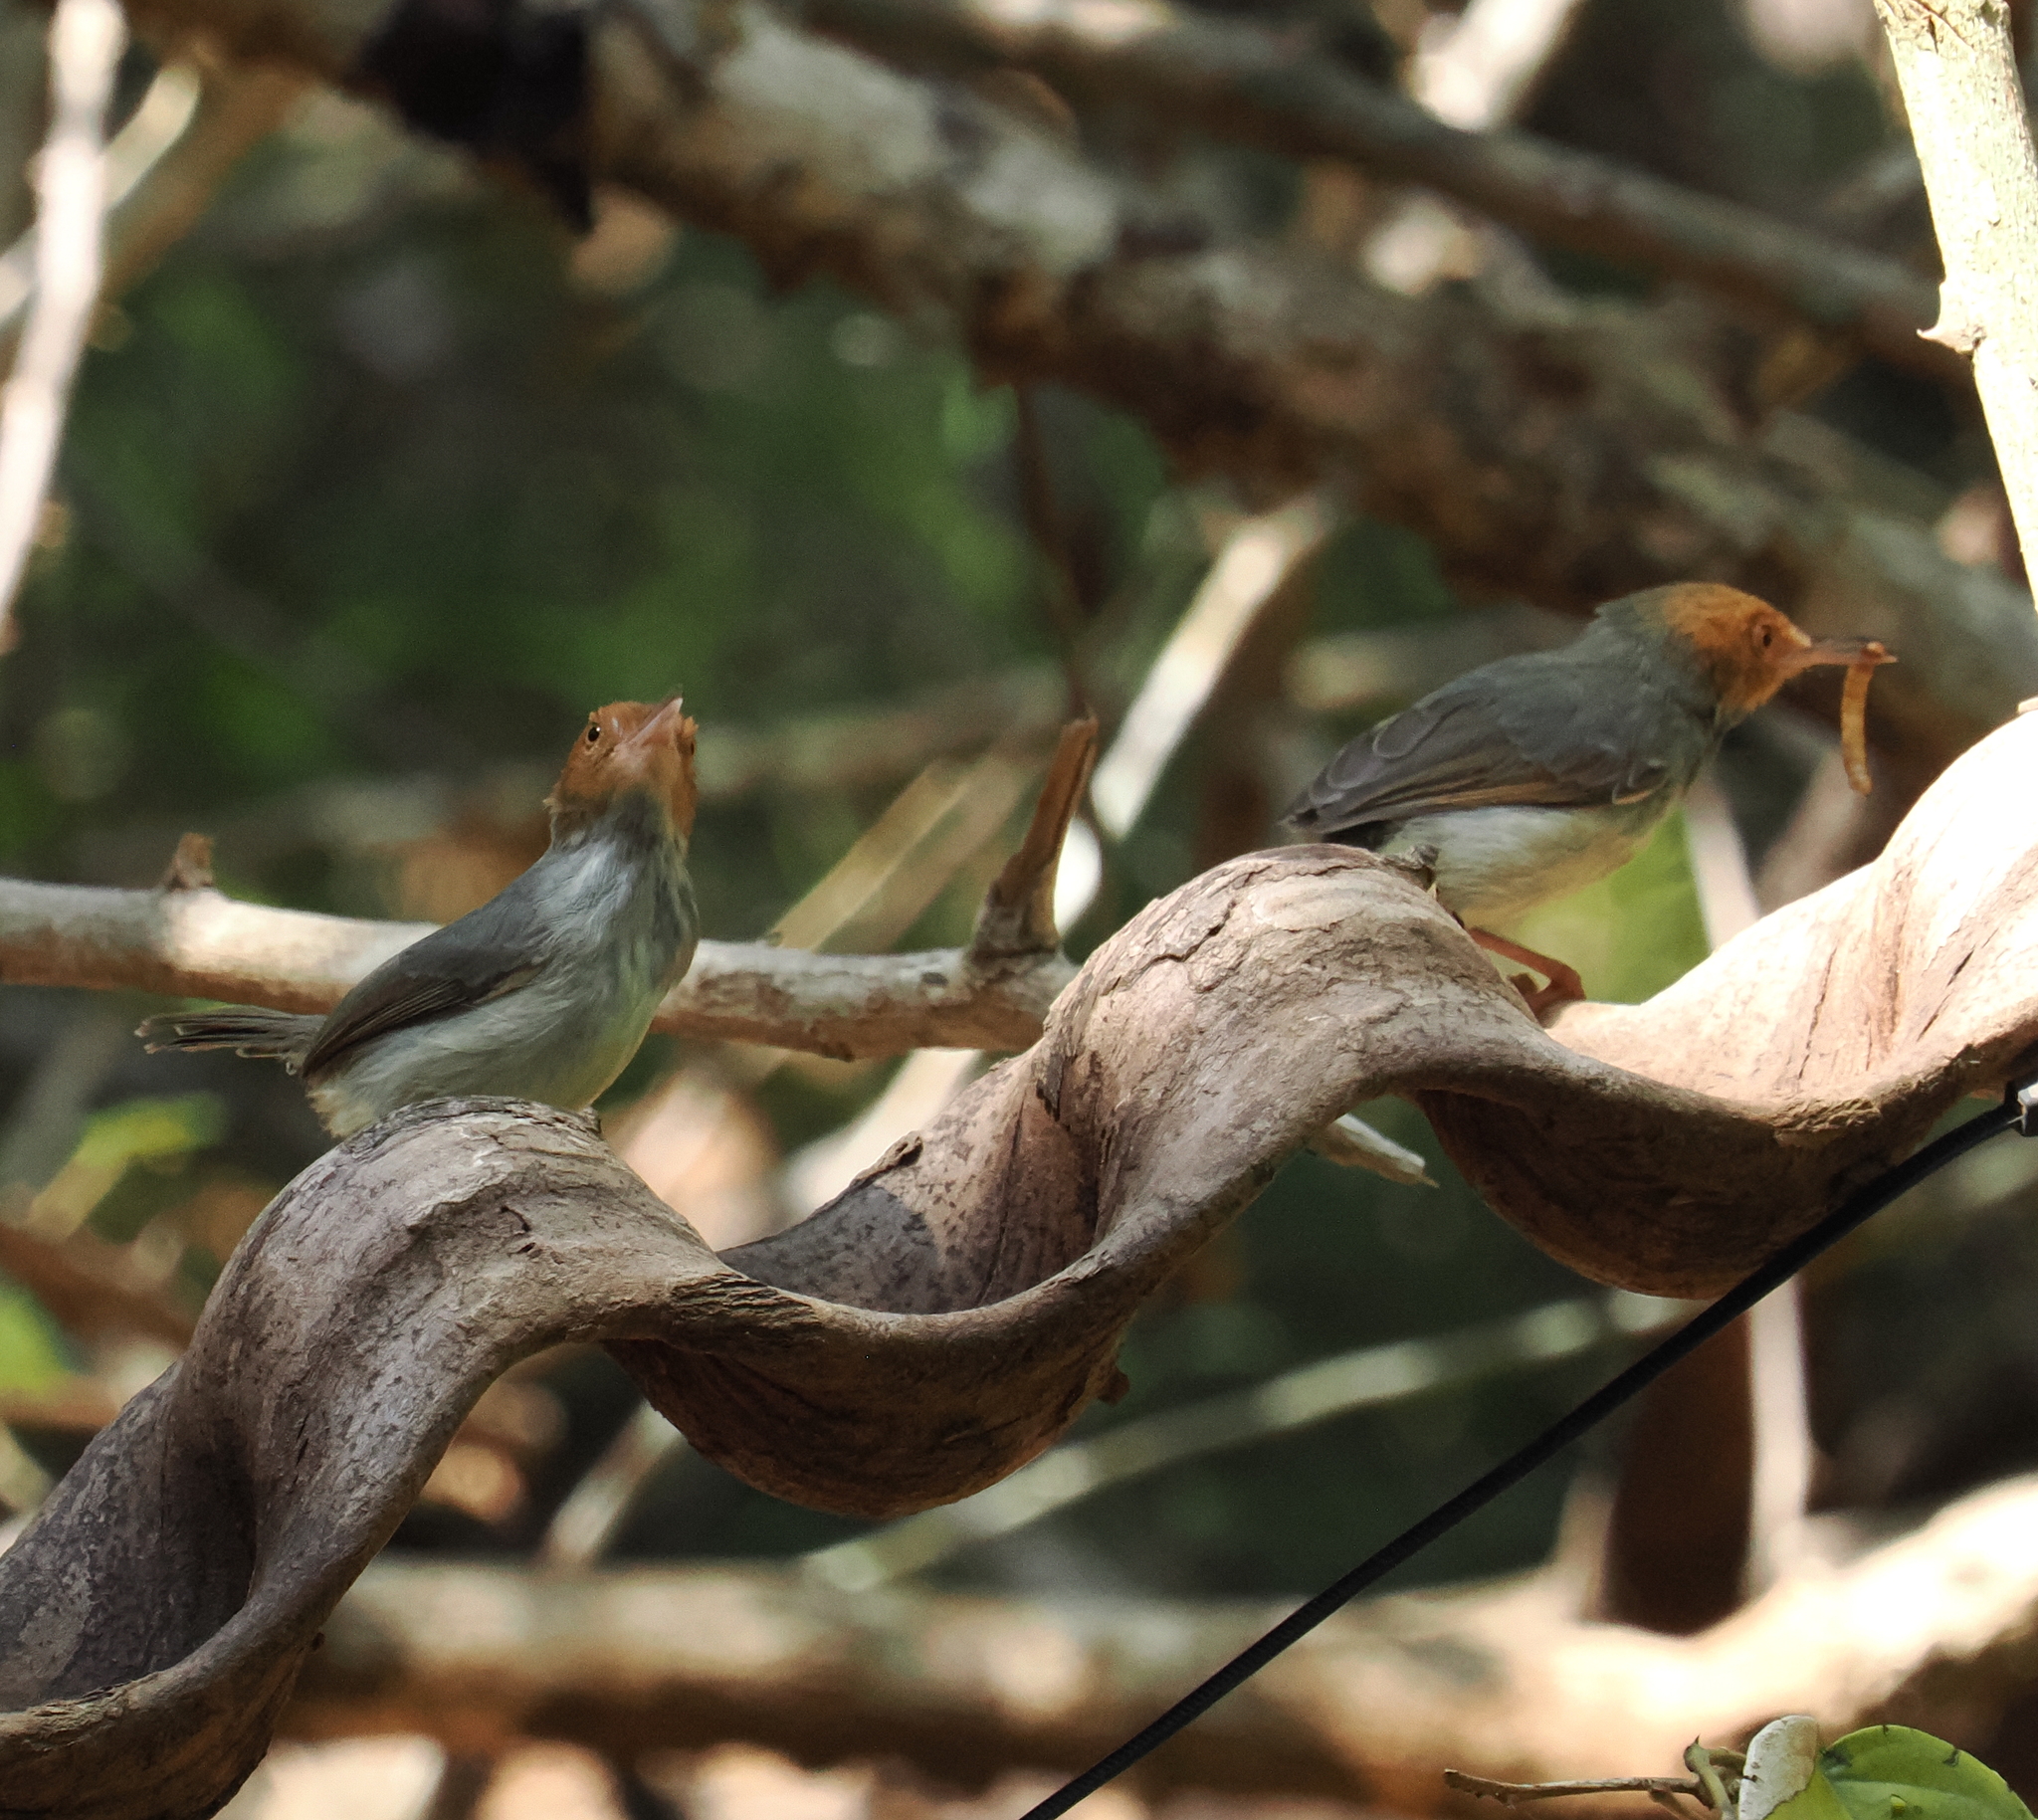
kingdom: Animalia
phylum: Chordata
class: Aves
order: Passeriformes
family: Cisticolidae
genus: Orthotomus
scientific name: Orthotomus sepium
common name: Olive-backed tailorbird
